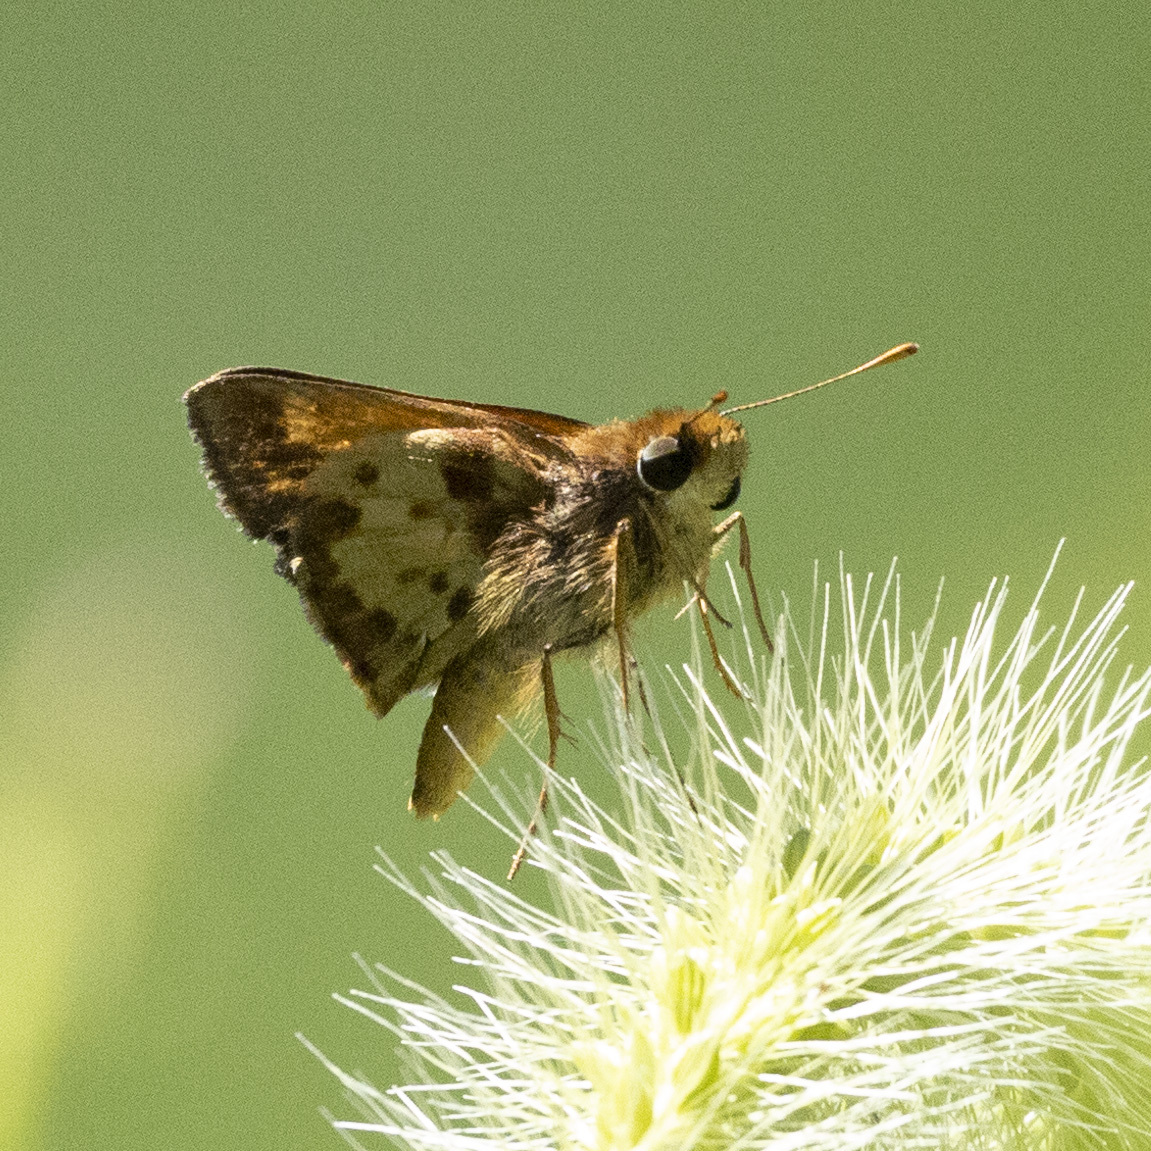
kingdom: Animalia
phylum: Arthropoda
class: Insecta
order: Lepidoptera
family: Hesperiidae
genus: Lon
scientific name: Lon zabulon
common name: Zabulon skipper
